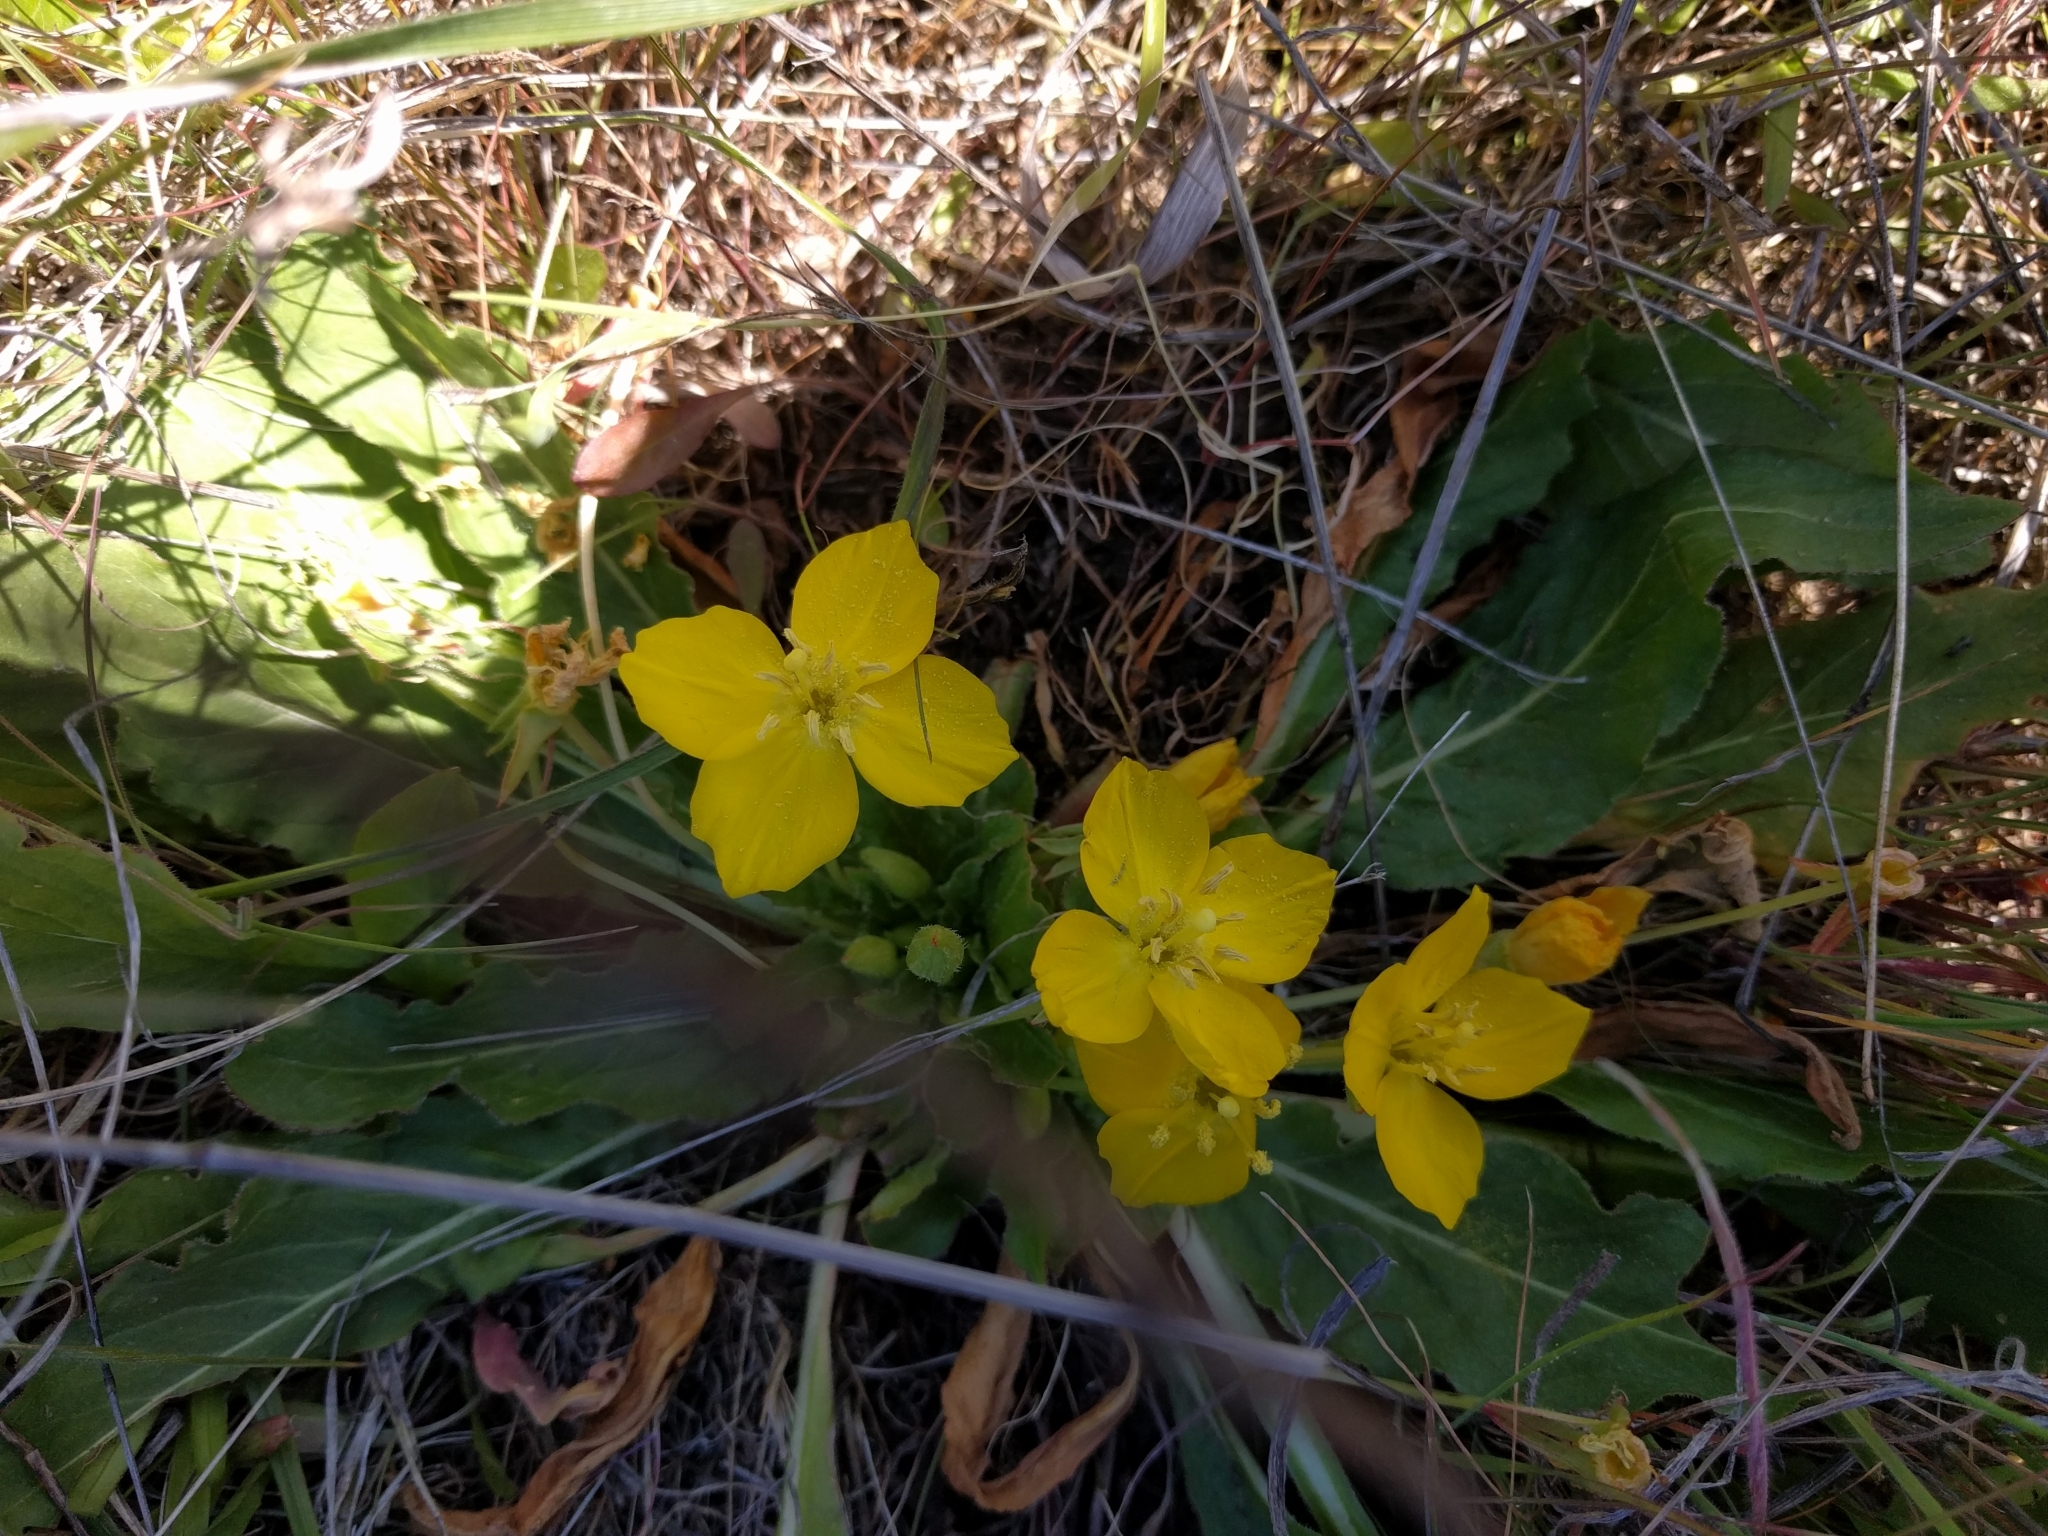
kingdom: Plantae
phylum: Tracheophyta
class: Magnoliopsida
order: Myrtales
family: Onagraceae
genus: Taraxia
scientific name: Taraxia ovata
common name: Goldeneggs
